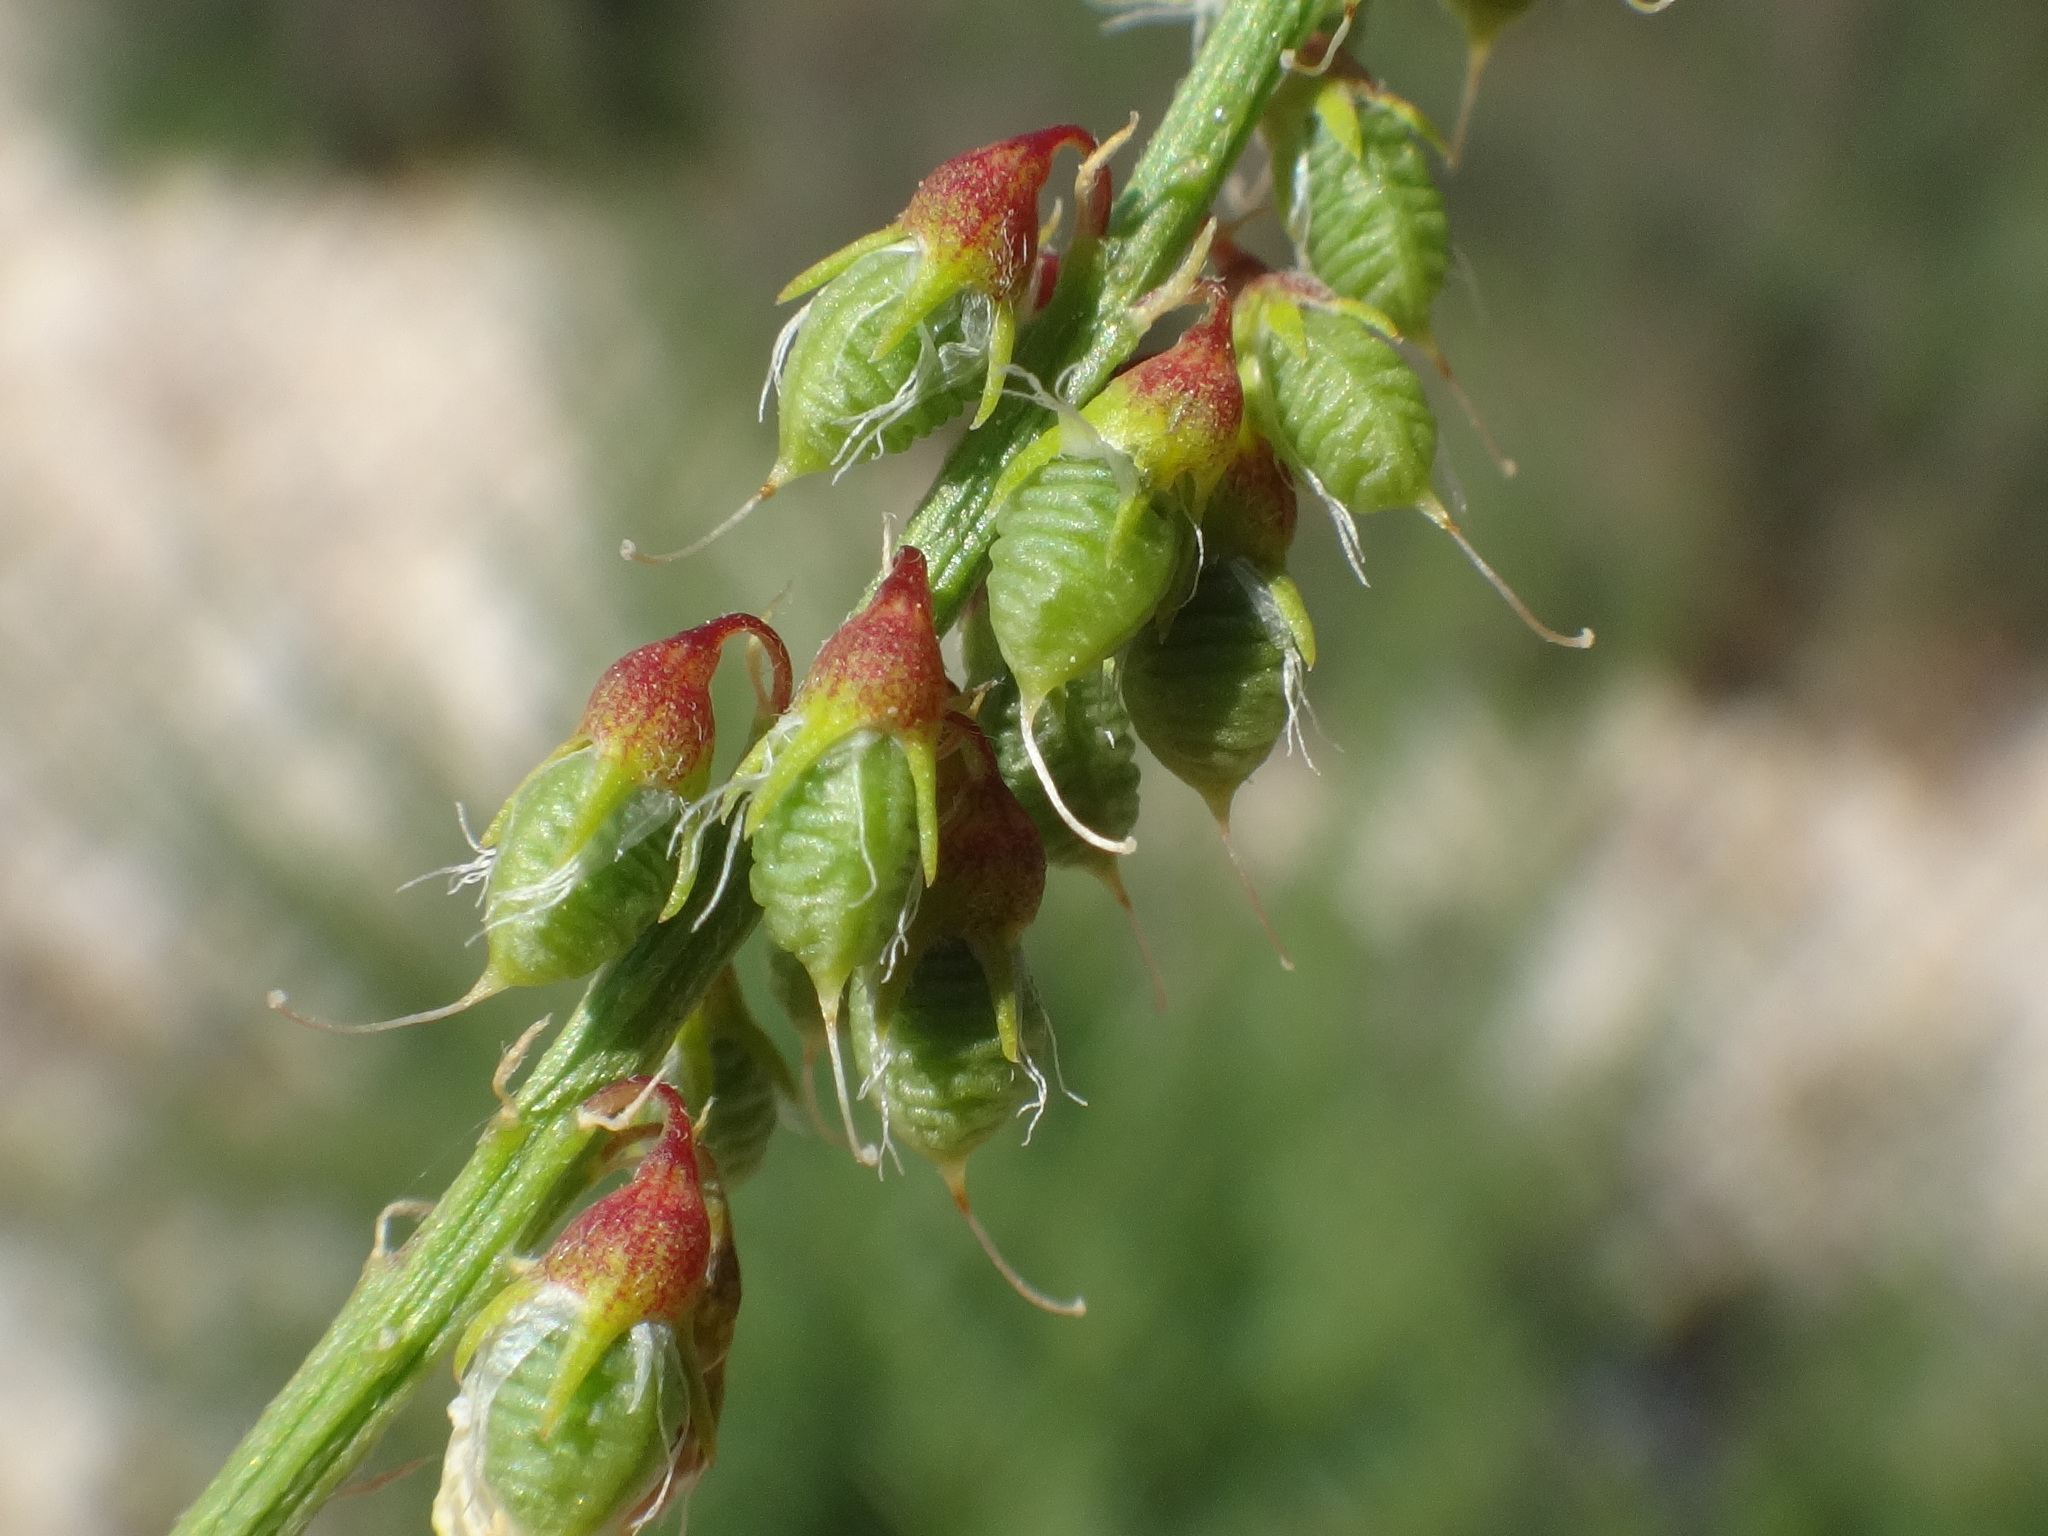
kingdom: Plantae
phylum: Tracheophyta
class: Magnoliopsida
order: Fabales
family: Fabaceae
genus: Melilotus
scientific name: Melilotus officinalis
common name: Sweetclover
